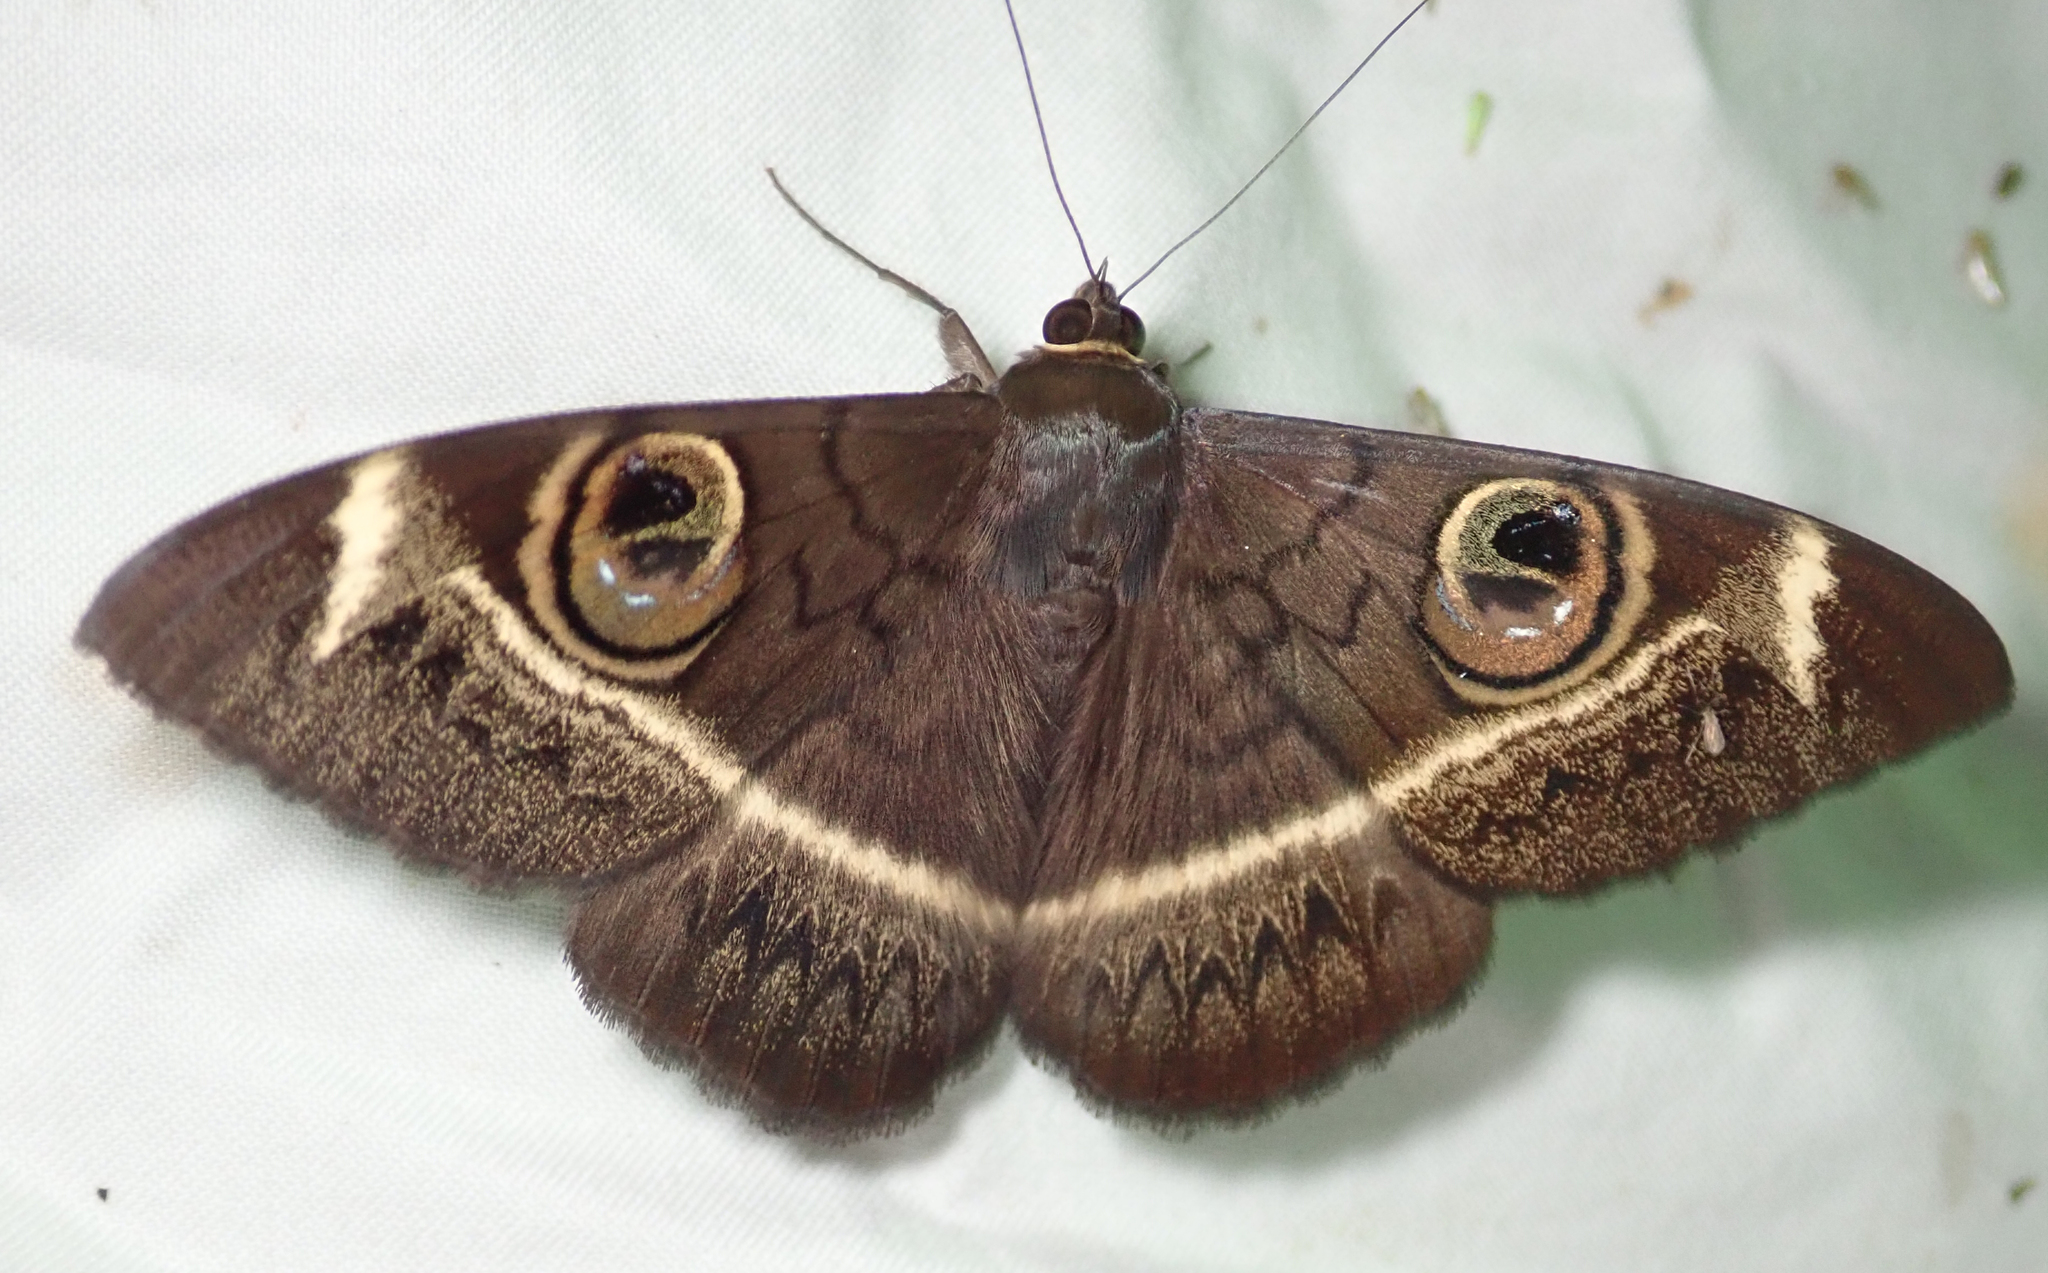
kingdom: Animalia
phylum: Arthropoda
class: Insecta
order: Lepidoptera
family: Erebidae
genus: Cyligramma
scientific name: Cyligramma latona
